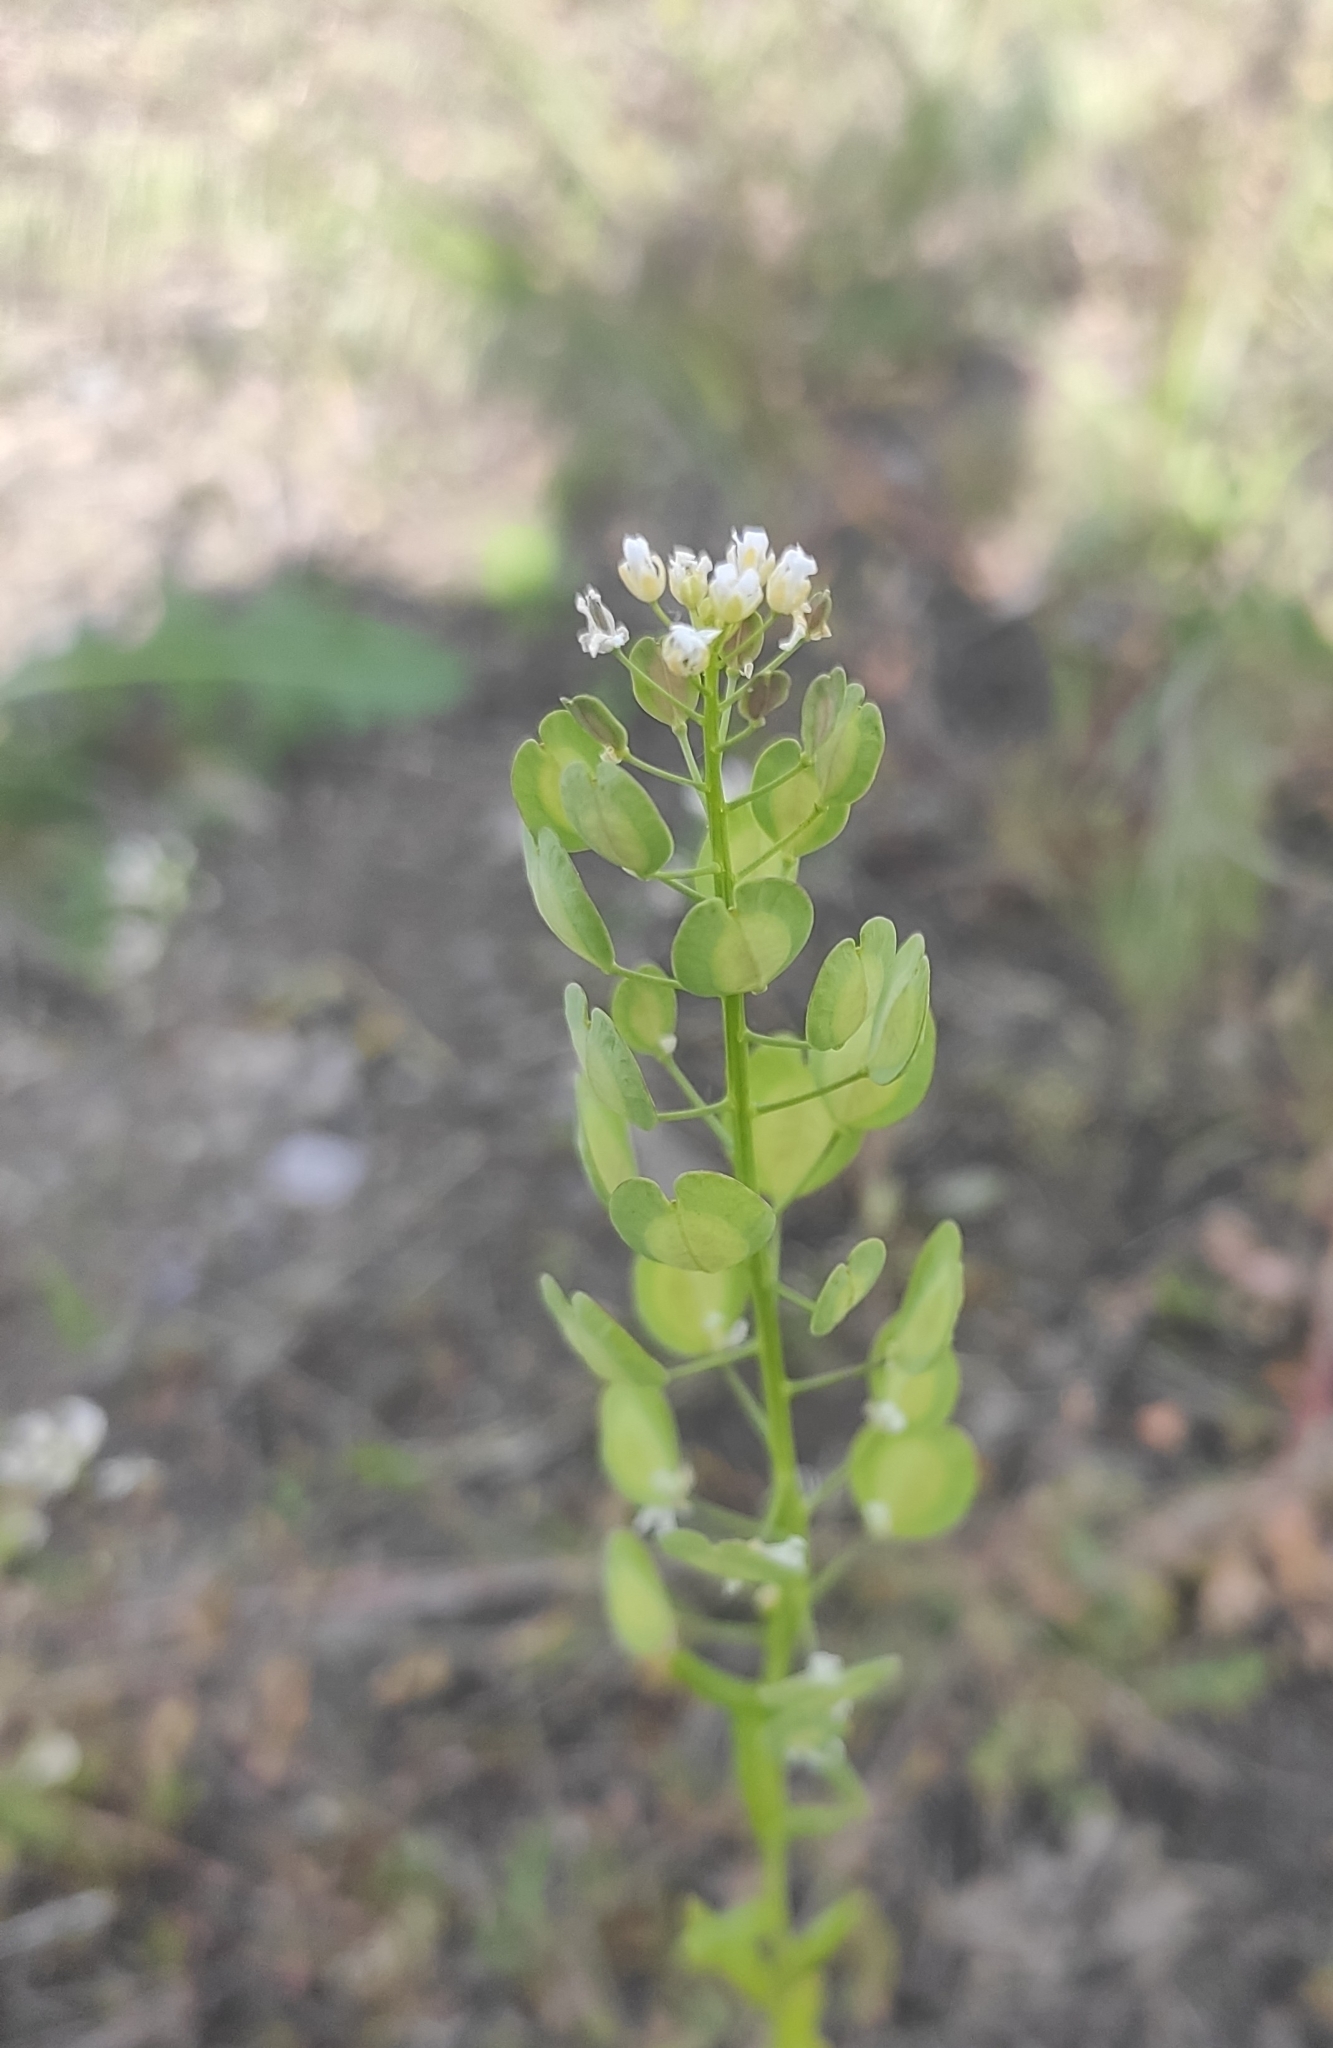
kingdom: Plantae
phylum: Tracheophyta
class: Magnoliopsida
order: Brassicales
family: Brassicaceae
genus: Thlaspi
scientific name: Thlaspi arvense
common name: Field pennycress
